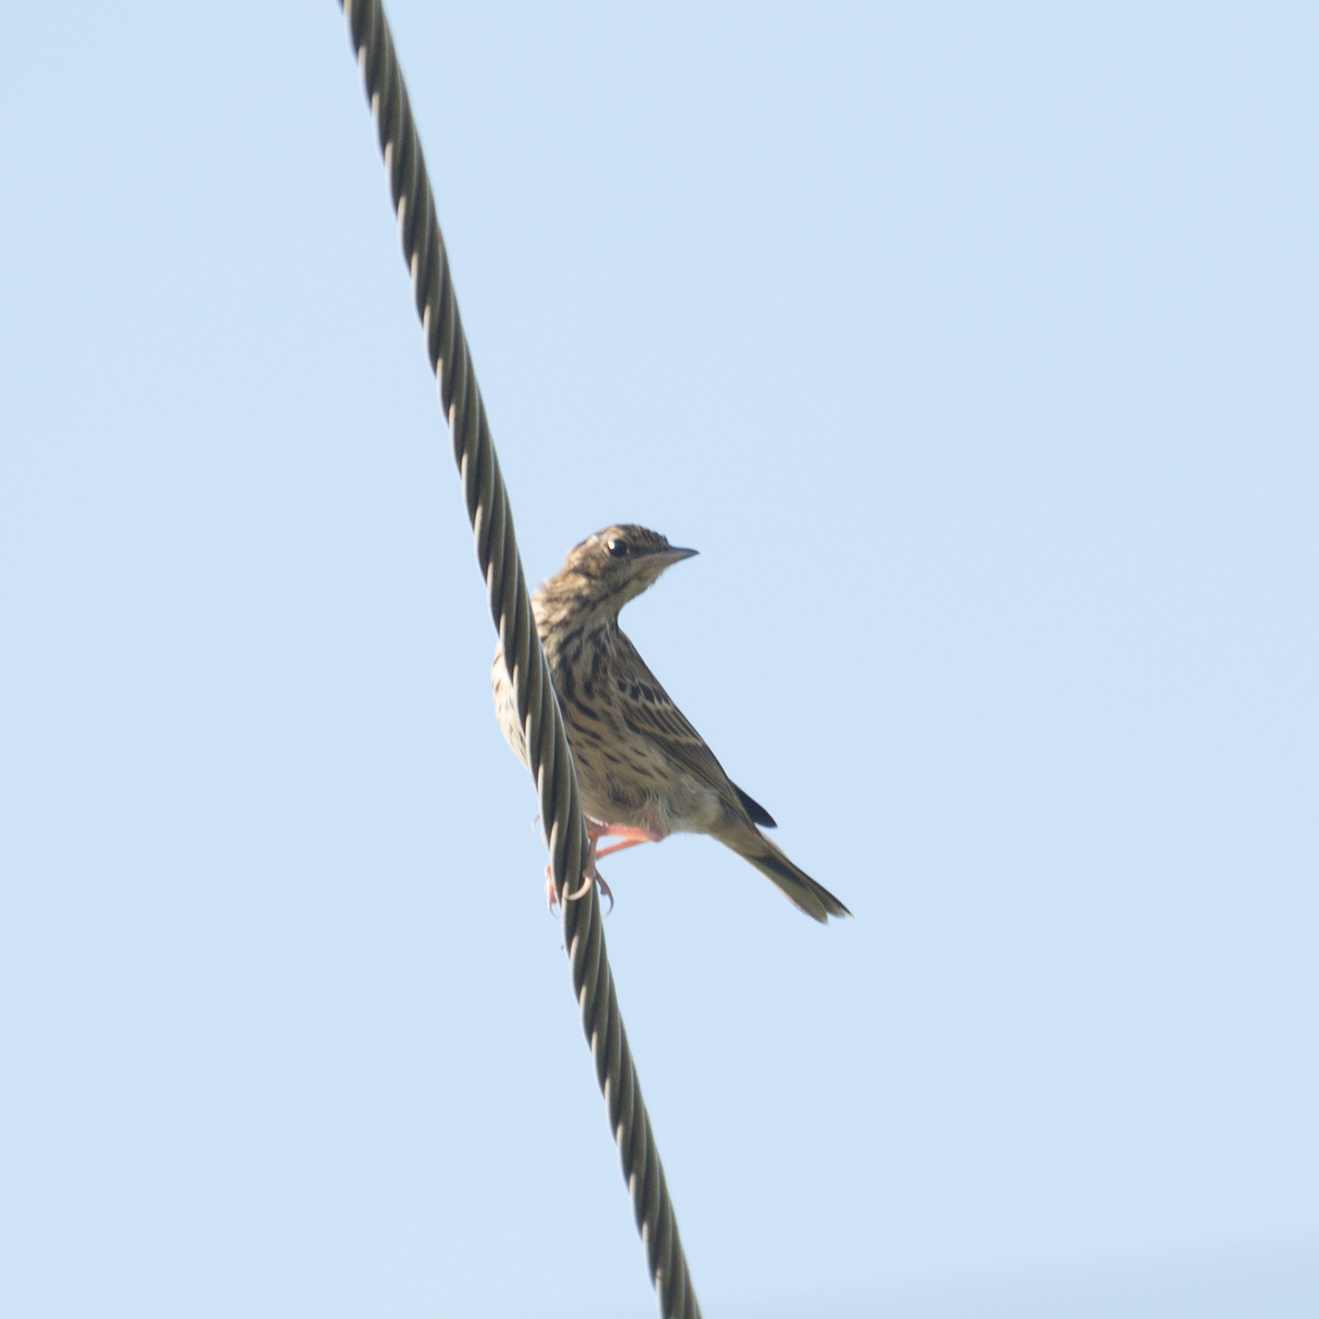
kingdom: Animalia
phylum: Chordata
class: Aves
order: Passeriformes
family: Motacillidae
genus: Anthus
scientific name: Anthus trivialis
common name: Tree pipit
